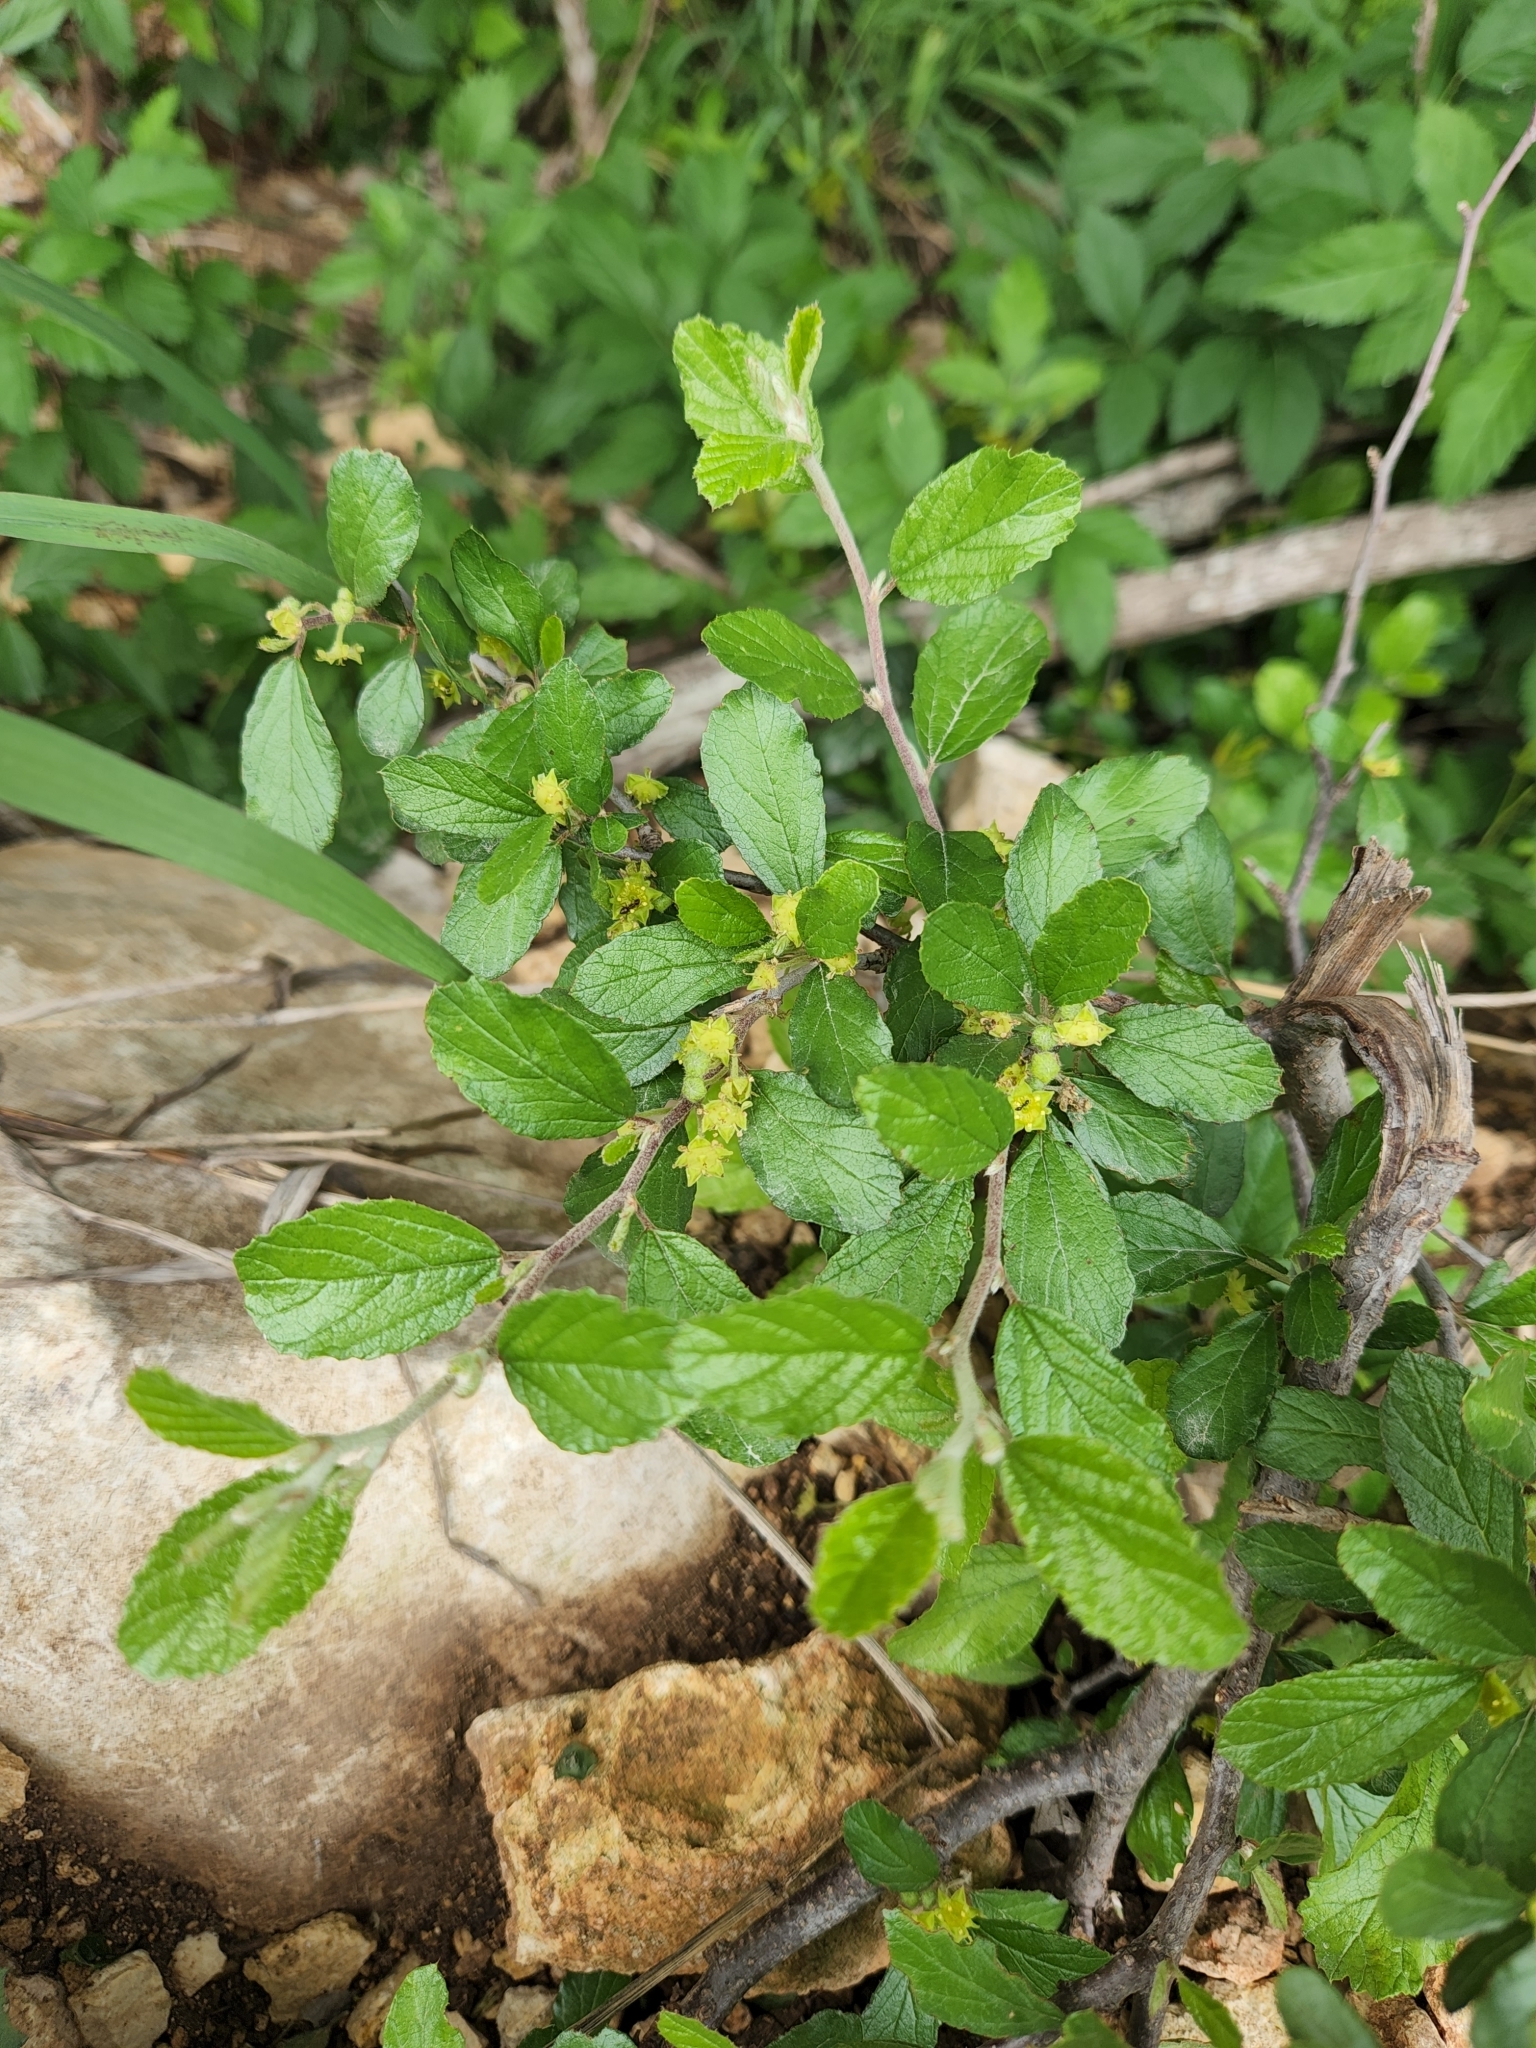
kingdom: Plantae
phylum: Tracheophyta
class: Magnoliopsida
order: Rosales
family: Rhamnaceae
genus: Colubrina
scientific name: Colubrina texensis
